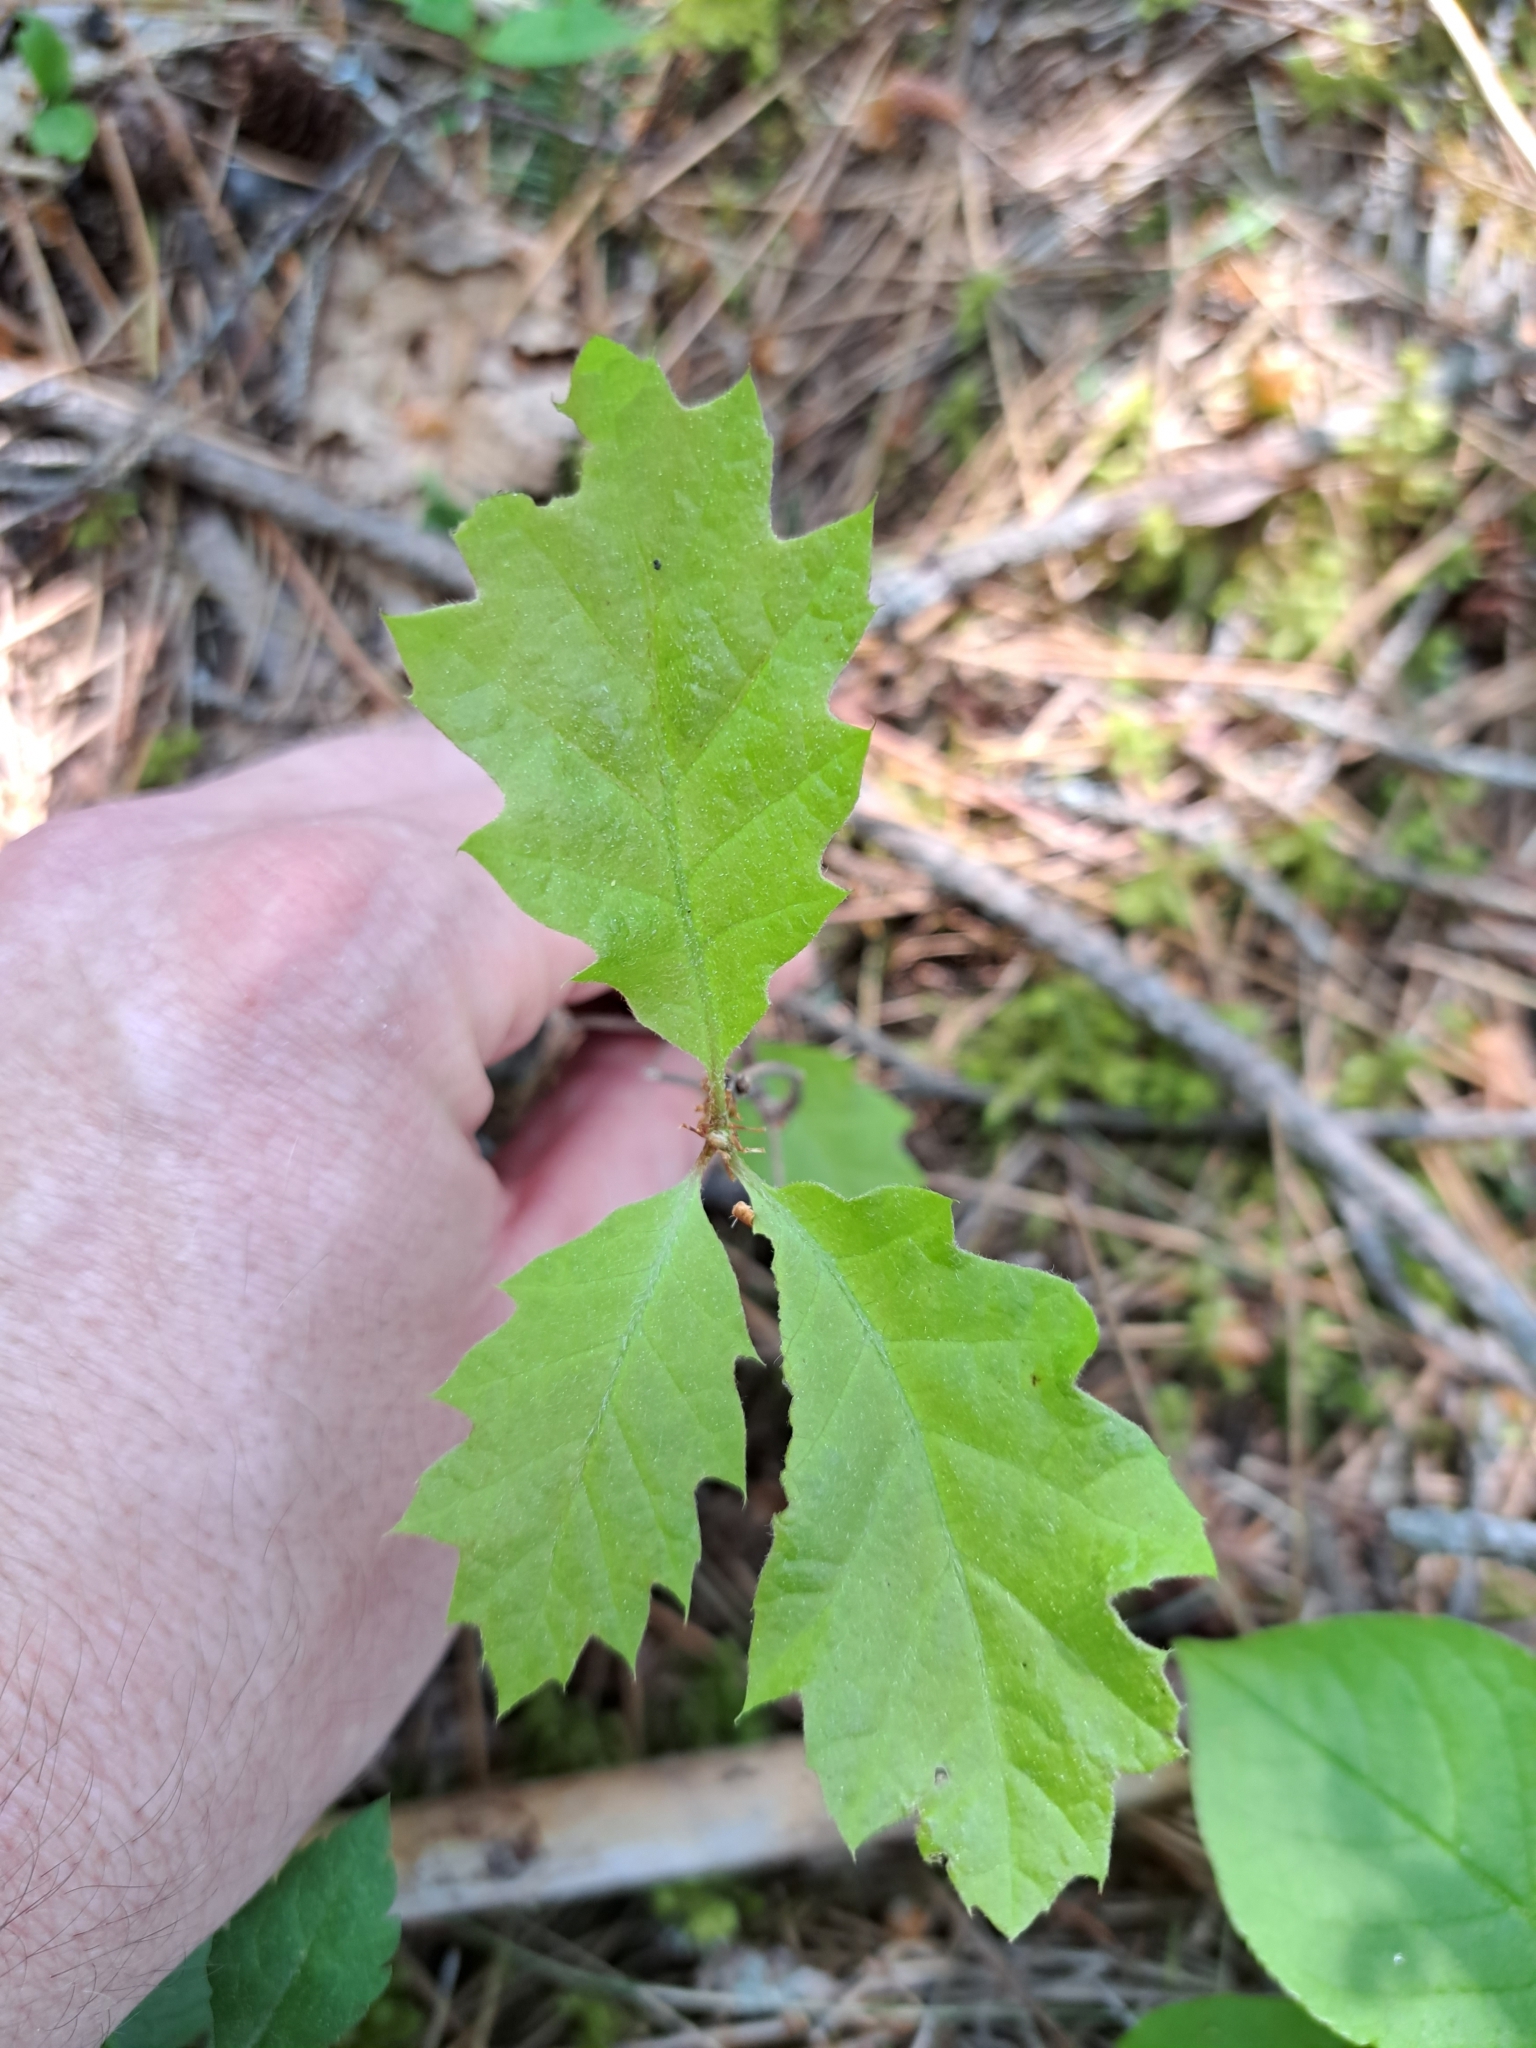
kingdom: Plantae
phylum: Tracheophyta
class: Magnoliopsida
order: Fagales
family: Fagaceae
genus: Quercus
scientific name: Quercus rubra
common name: Red oak
